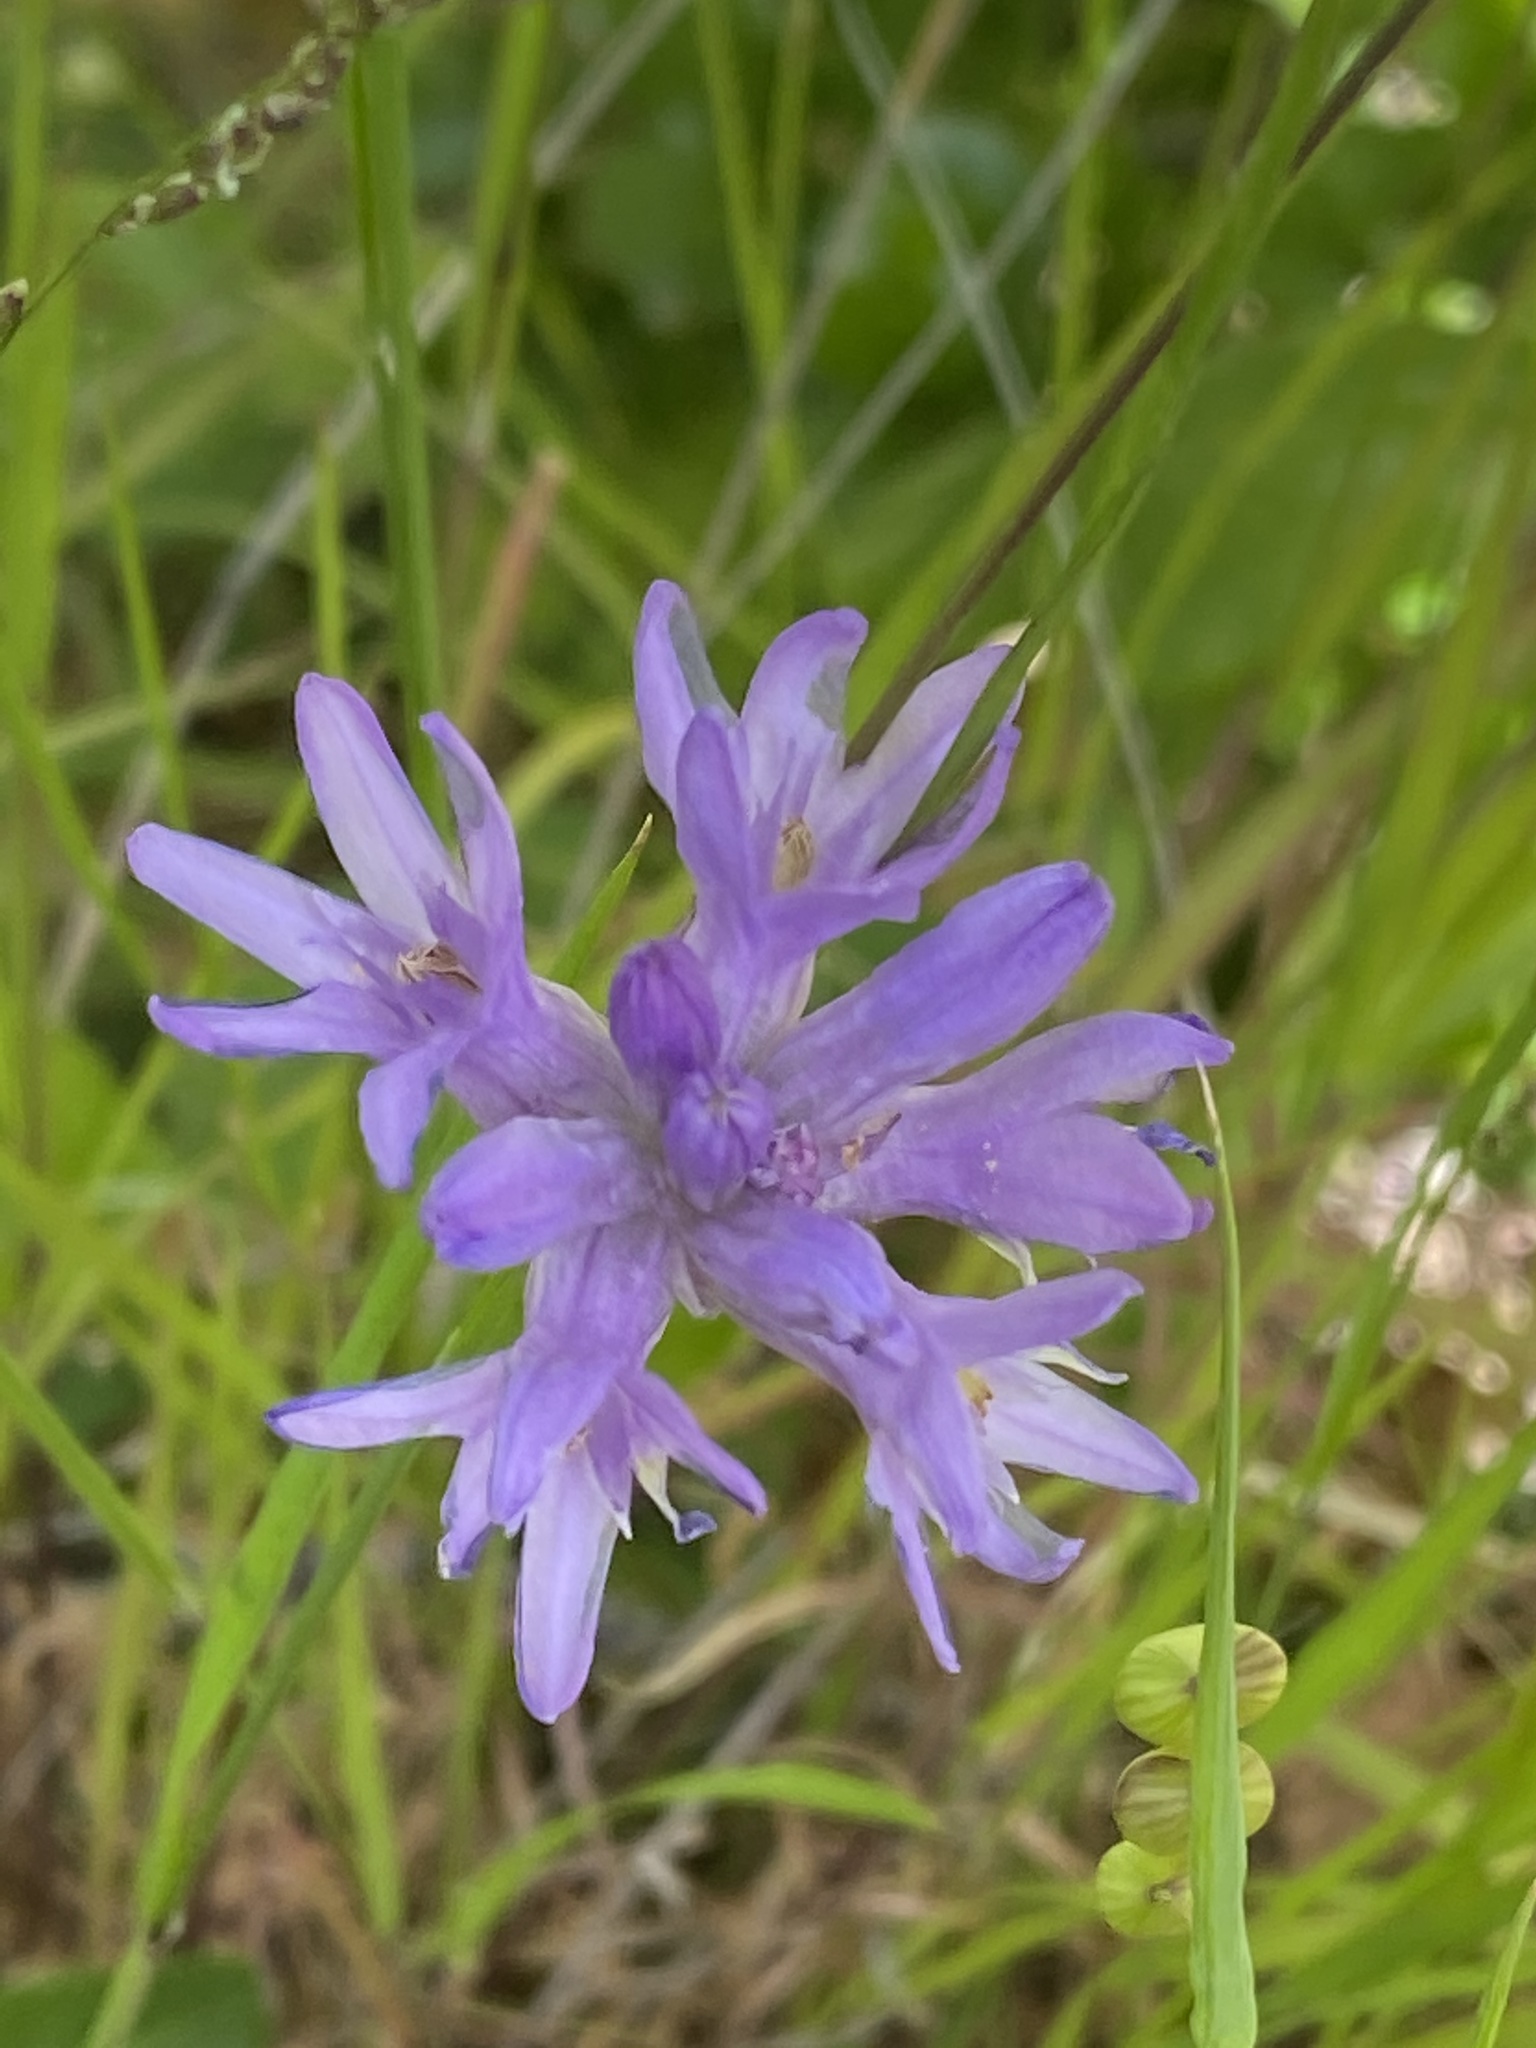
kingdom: Plantae
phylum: Tracheophyta
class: Liliopsida
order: Asparagales
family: Asparagaceae
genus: Dichelostemma
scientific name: Dichelostemma congestum
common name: Fork-tooth ookow
